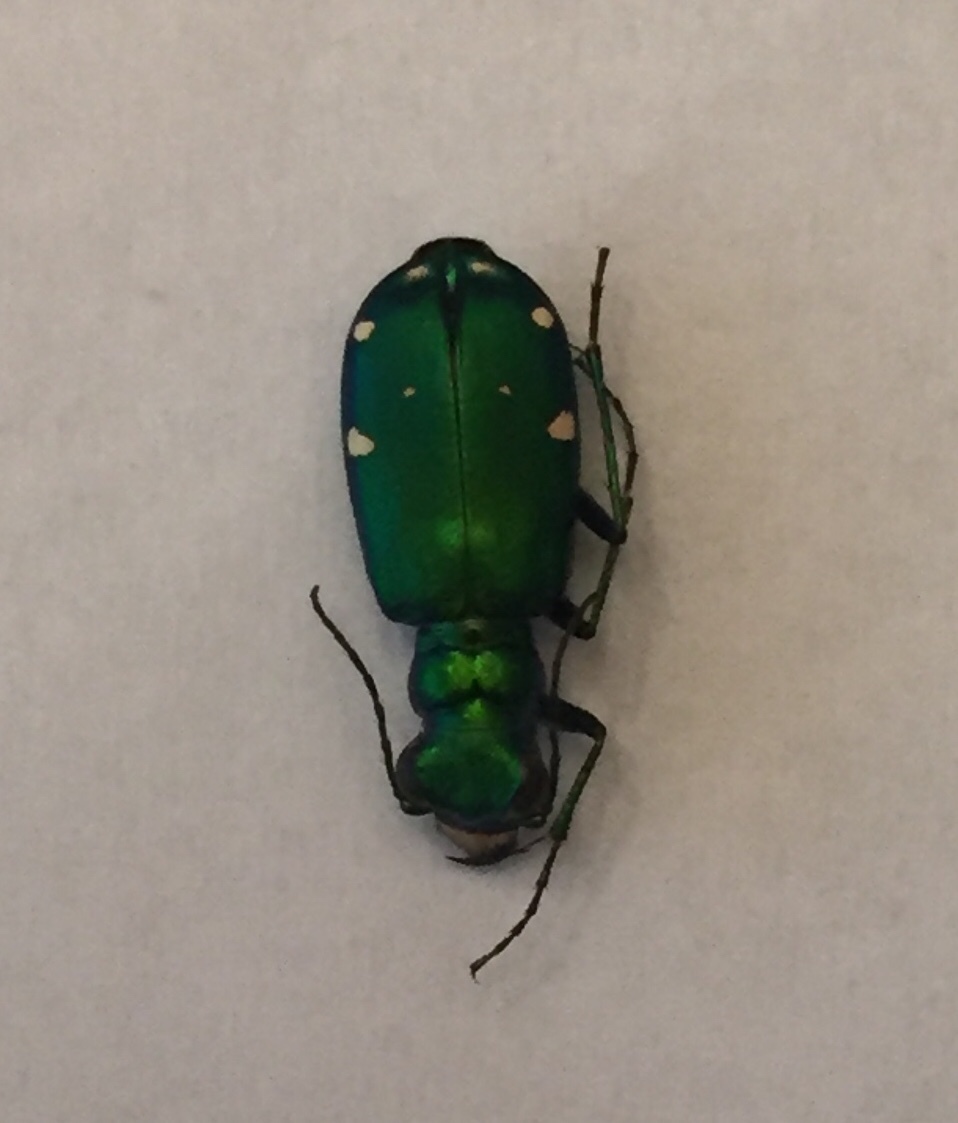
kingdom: Animalia
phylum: Arthropoda
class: Insecta
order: Coleoptera
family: Carabidae
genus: Cicindela
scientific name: Cicindela sexguttata
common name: Six-spotted tiger beetle
